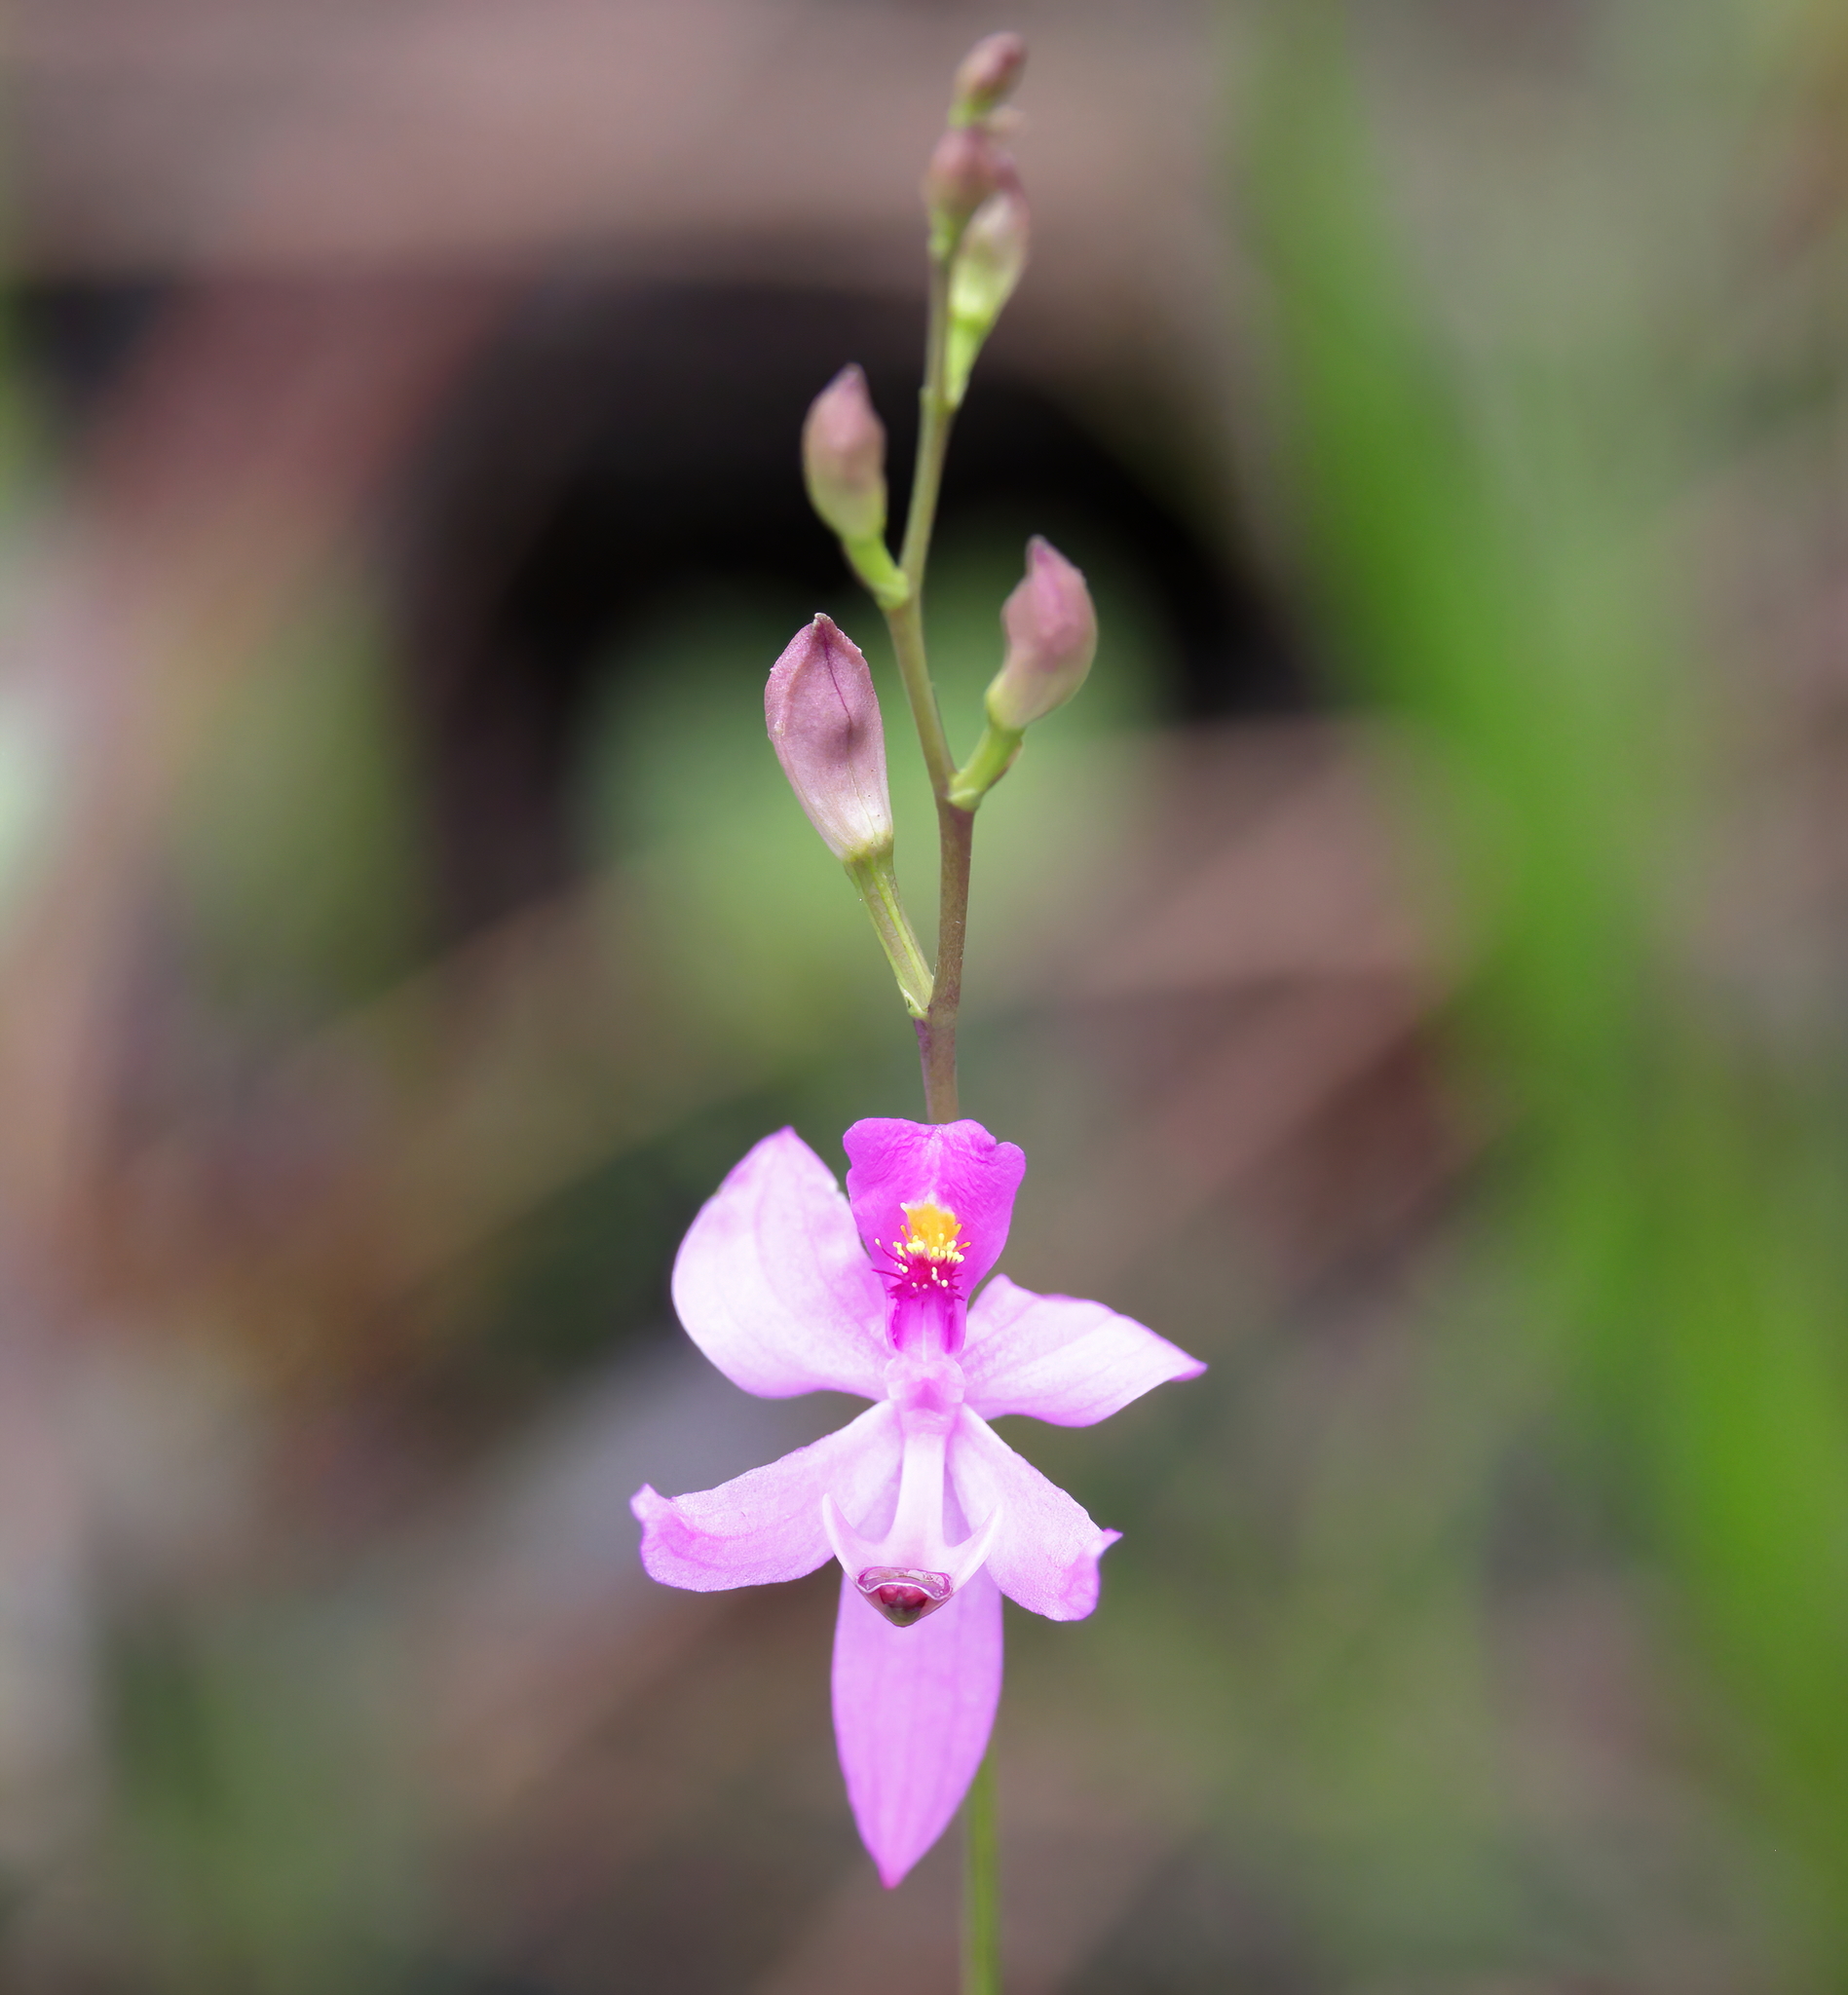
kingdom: Plantae
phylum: Tracheophyta
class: Liliopsida
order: Asparagales
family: Orchidaceae
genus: Calopogon
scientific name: Calopogon pallidus
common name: Pale grasspink
